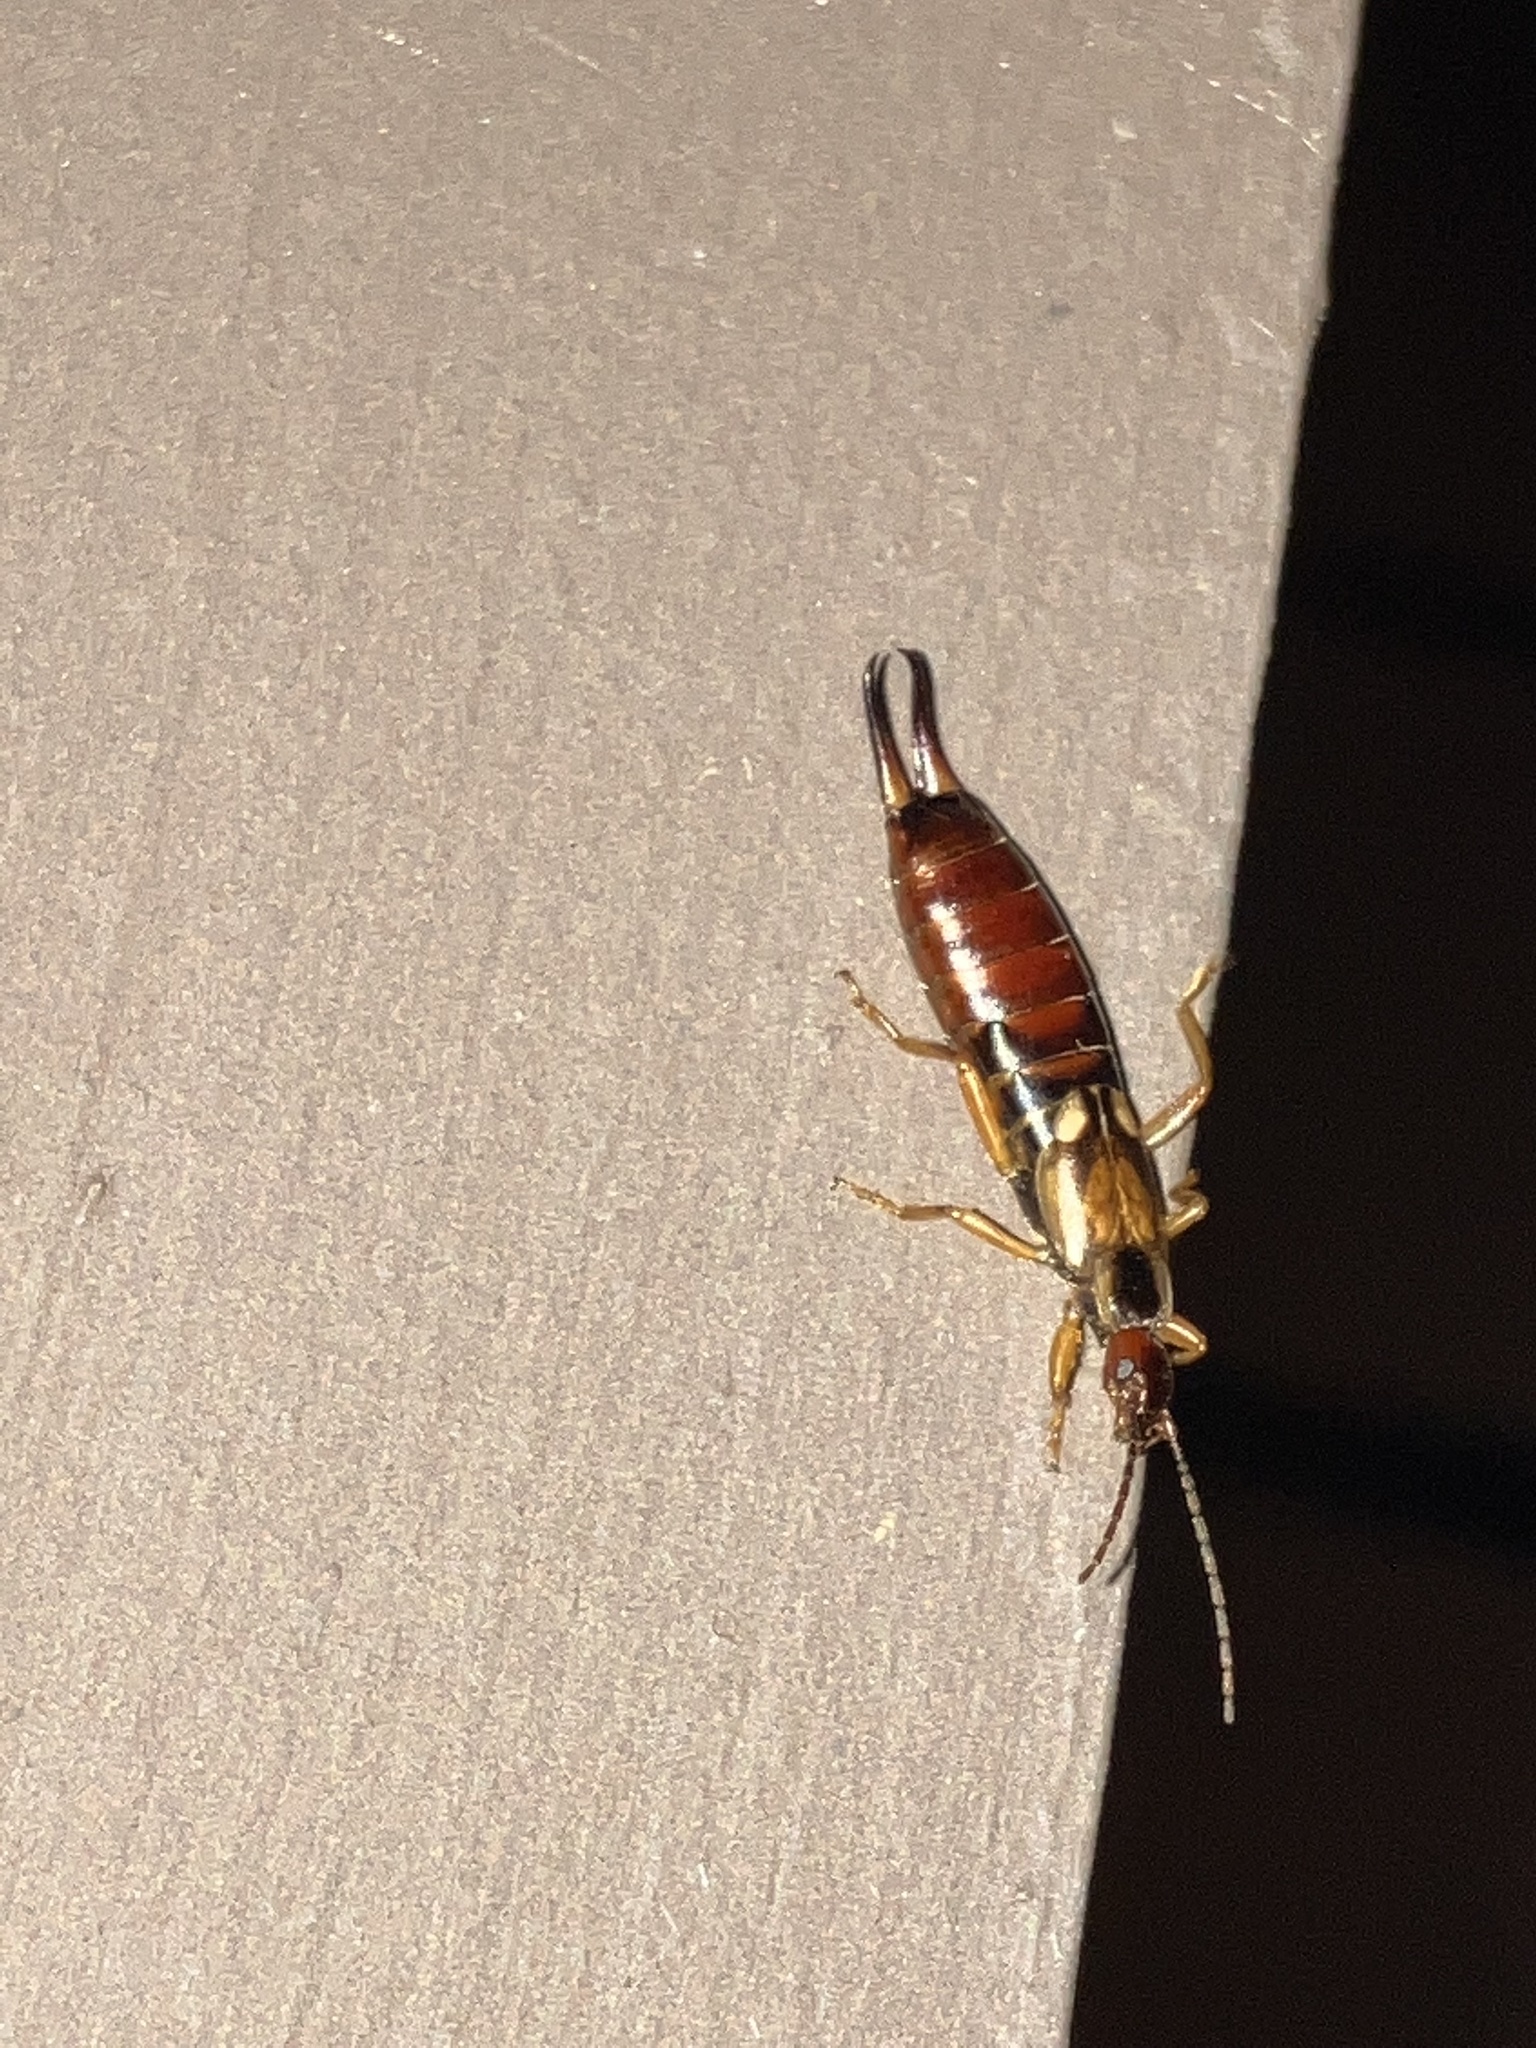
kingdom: Animalia
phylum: Arthropoda
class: Insecta
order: Dermaptera
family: Forficulidae
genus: Forficula
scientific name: Forficula
